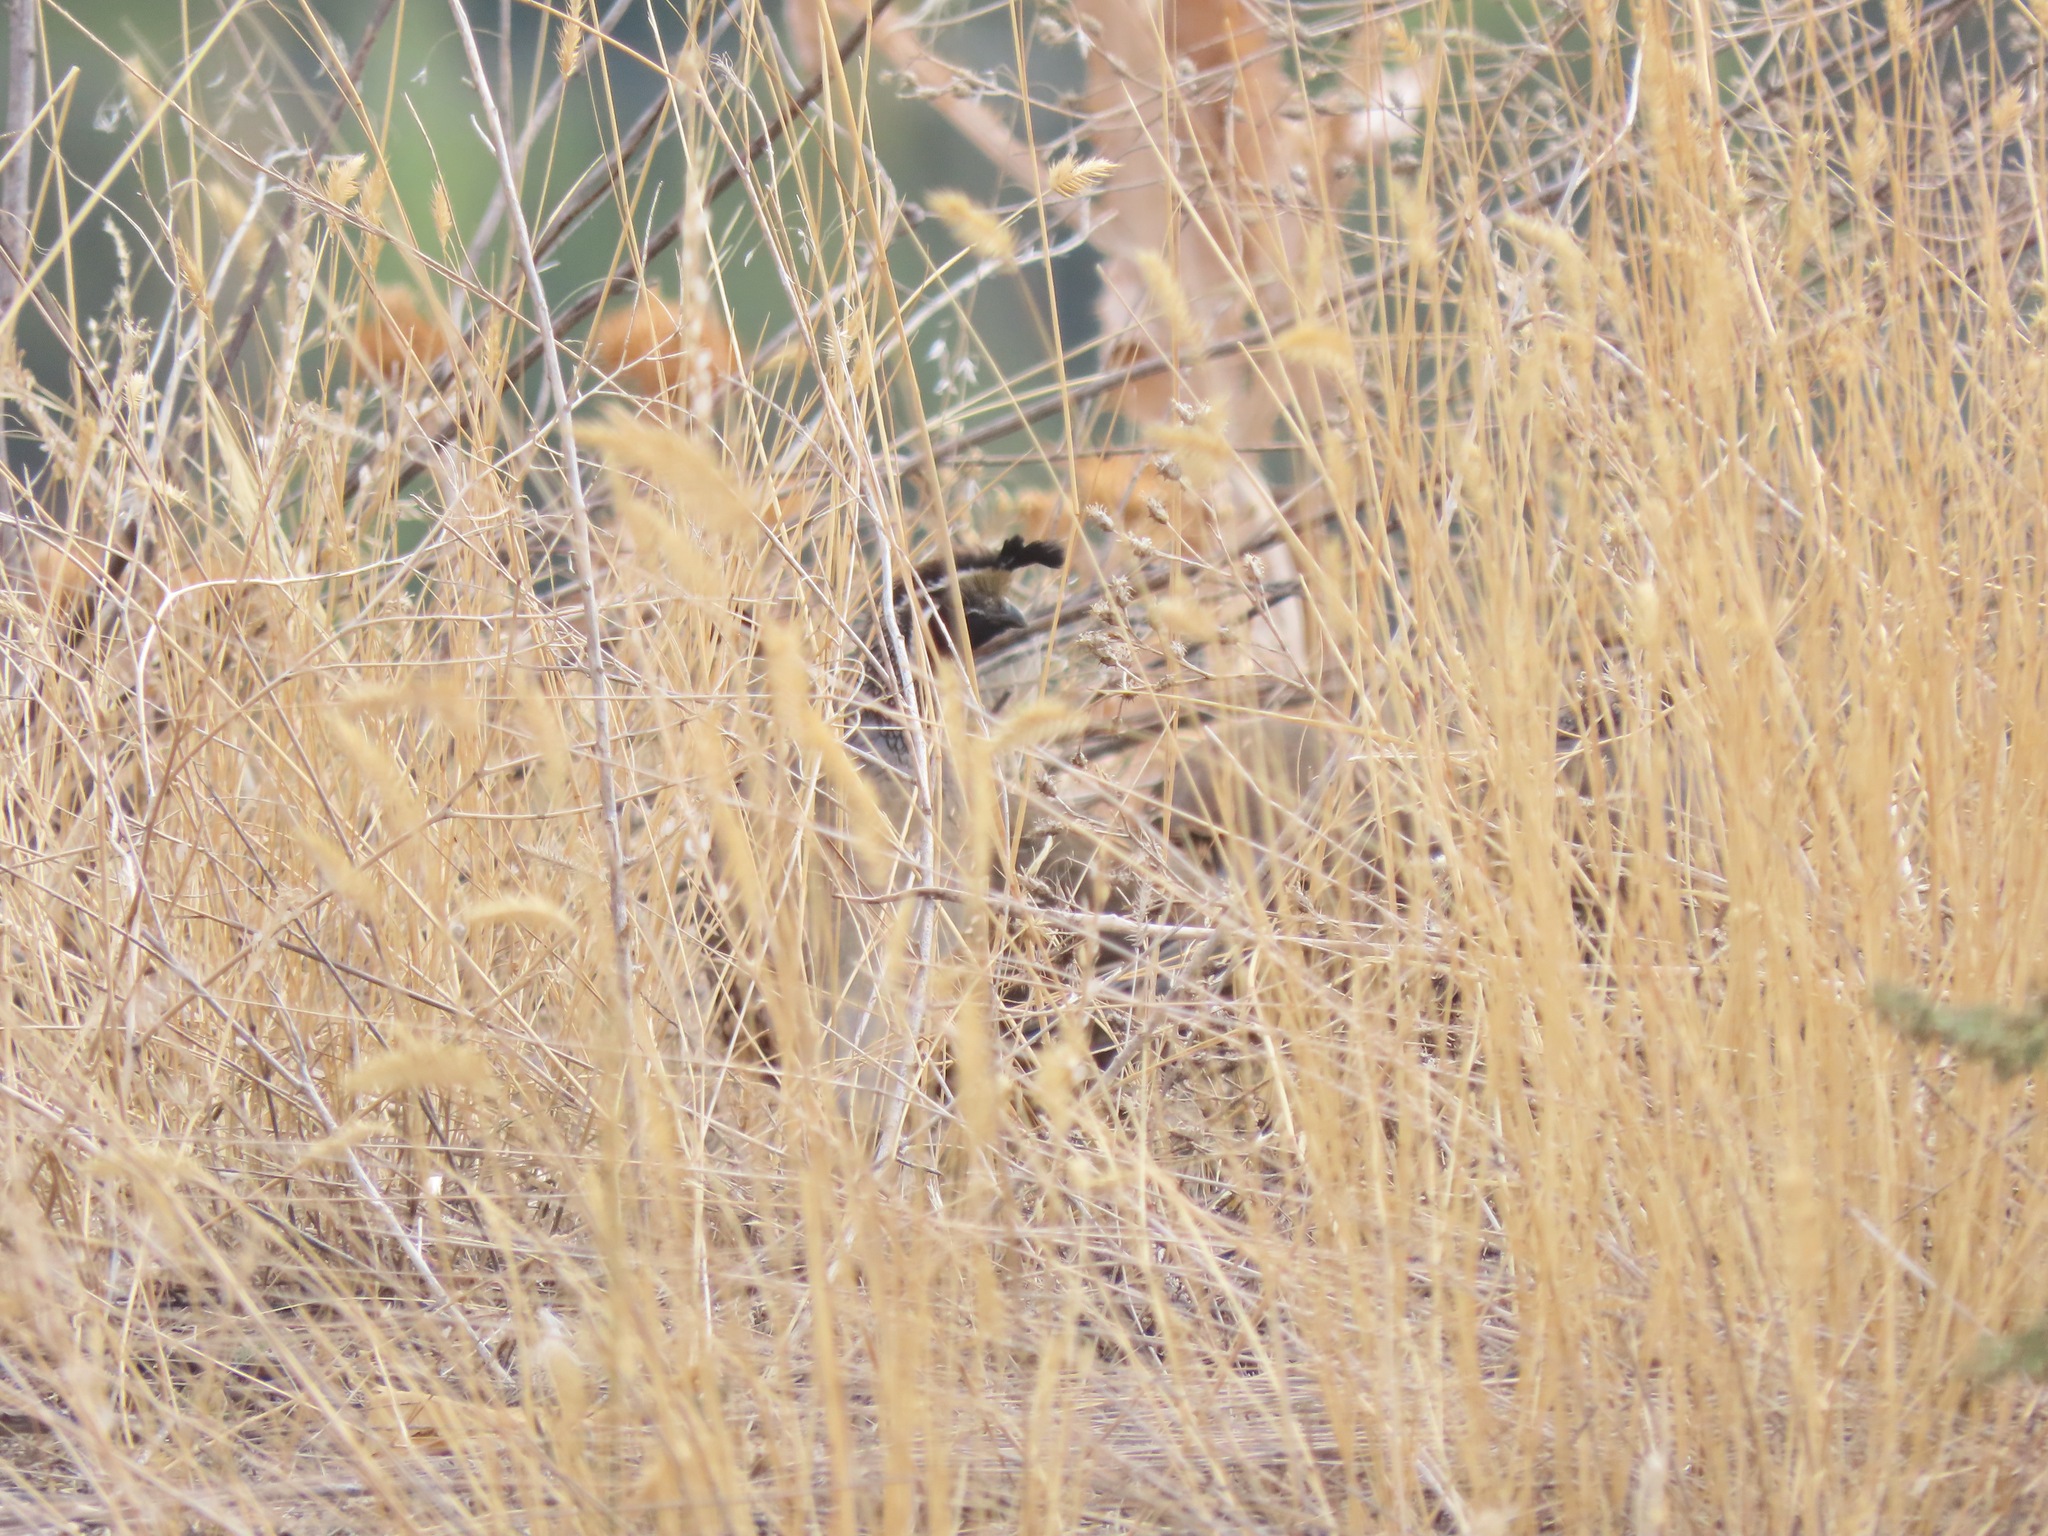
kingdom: Animalia
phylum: Chordata
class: Aves
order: Galliformes
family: Odontophoridae
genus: Callipepla
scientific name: Callipepla californica
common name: California quail
